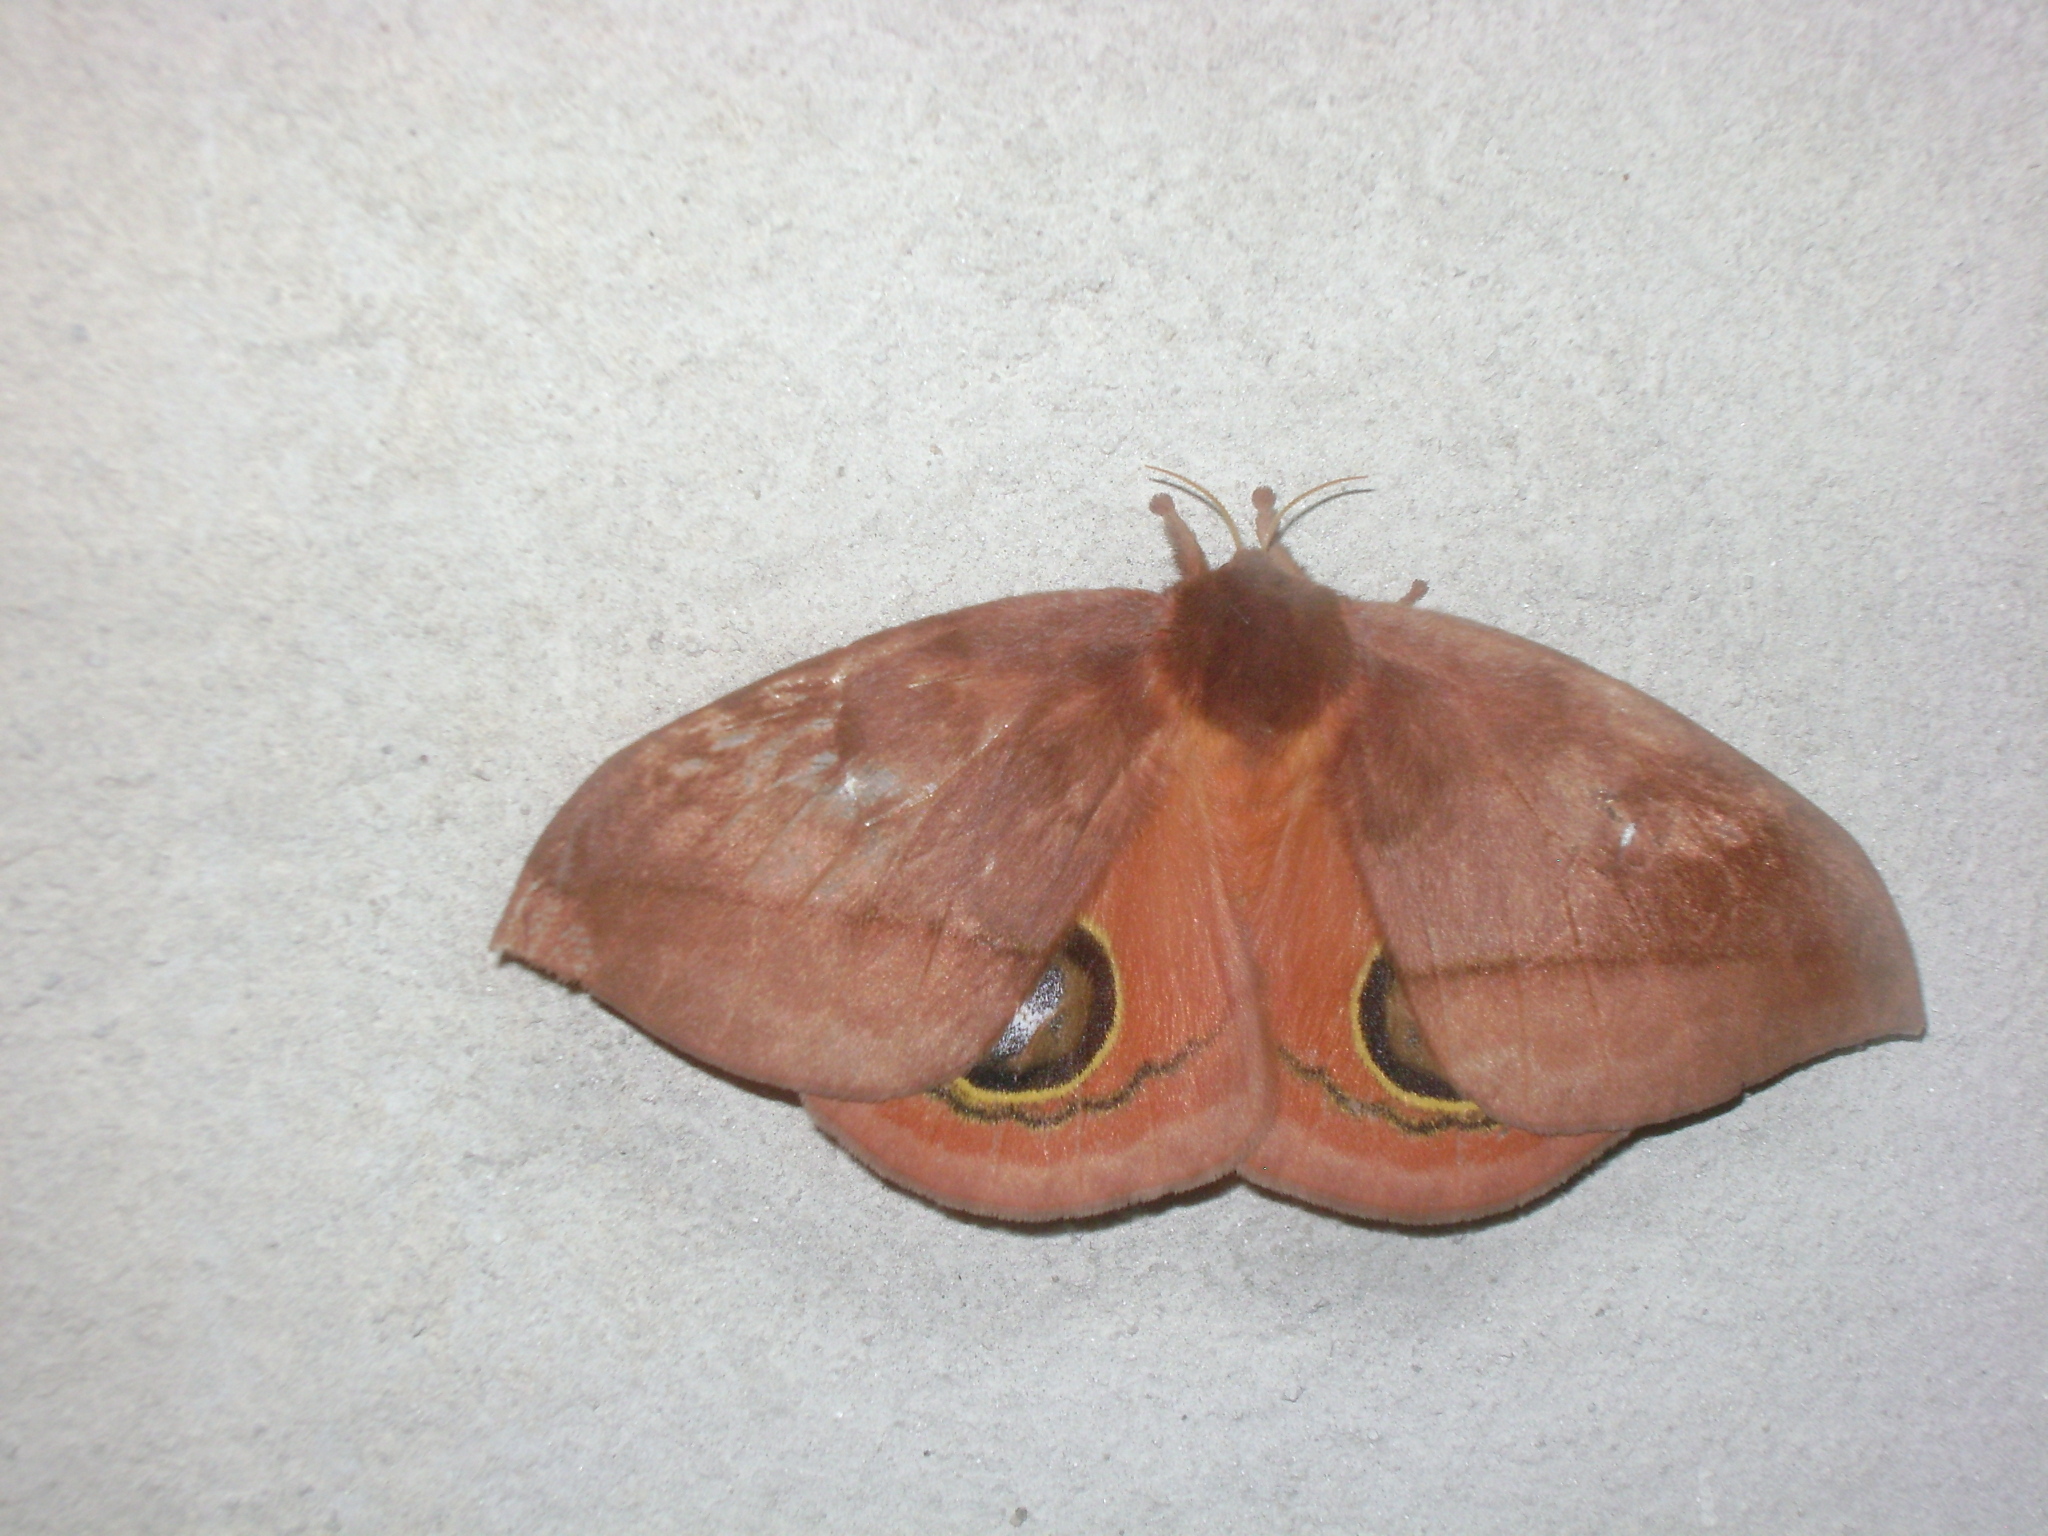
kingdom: Animalia
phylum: Arthropoda
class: Insecta
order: Lepidoptera
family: Saturniidae
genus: Automeris
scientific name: Automeris excreta
